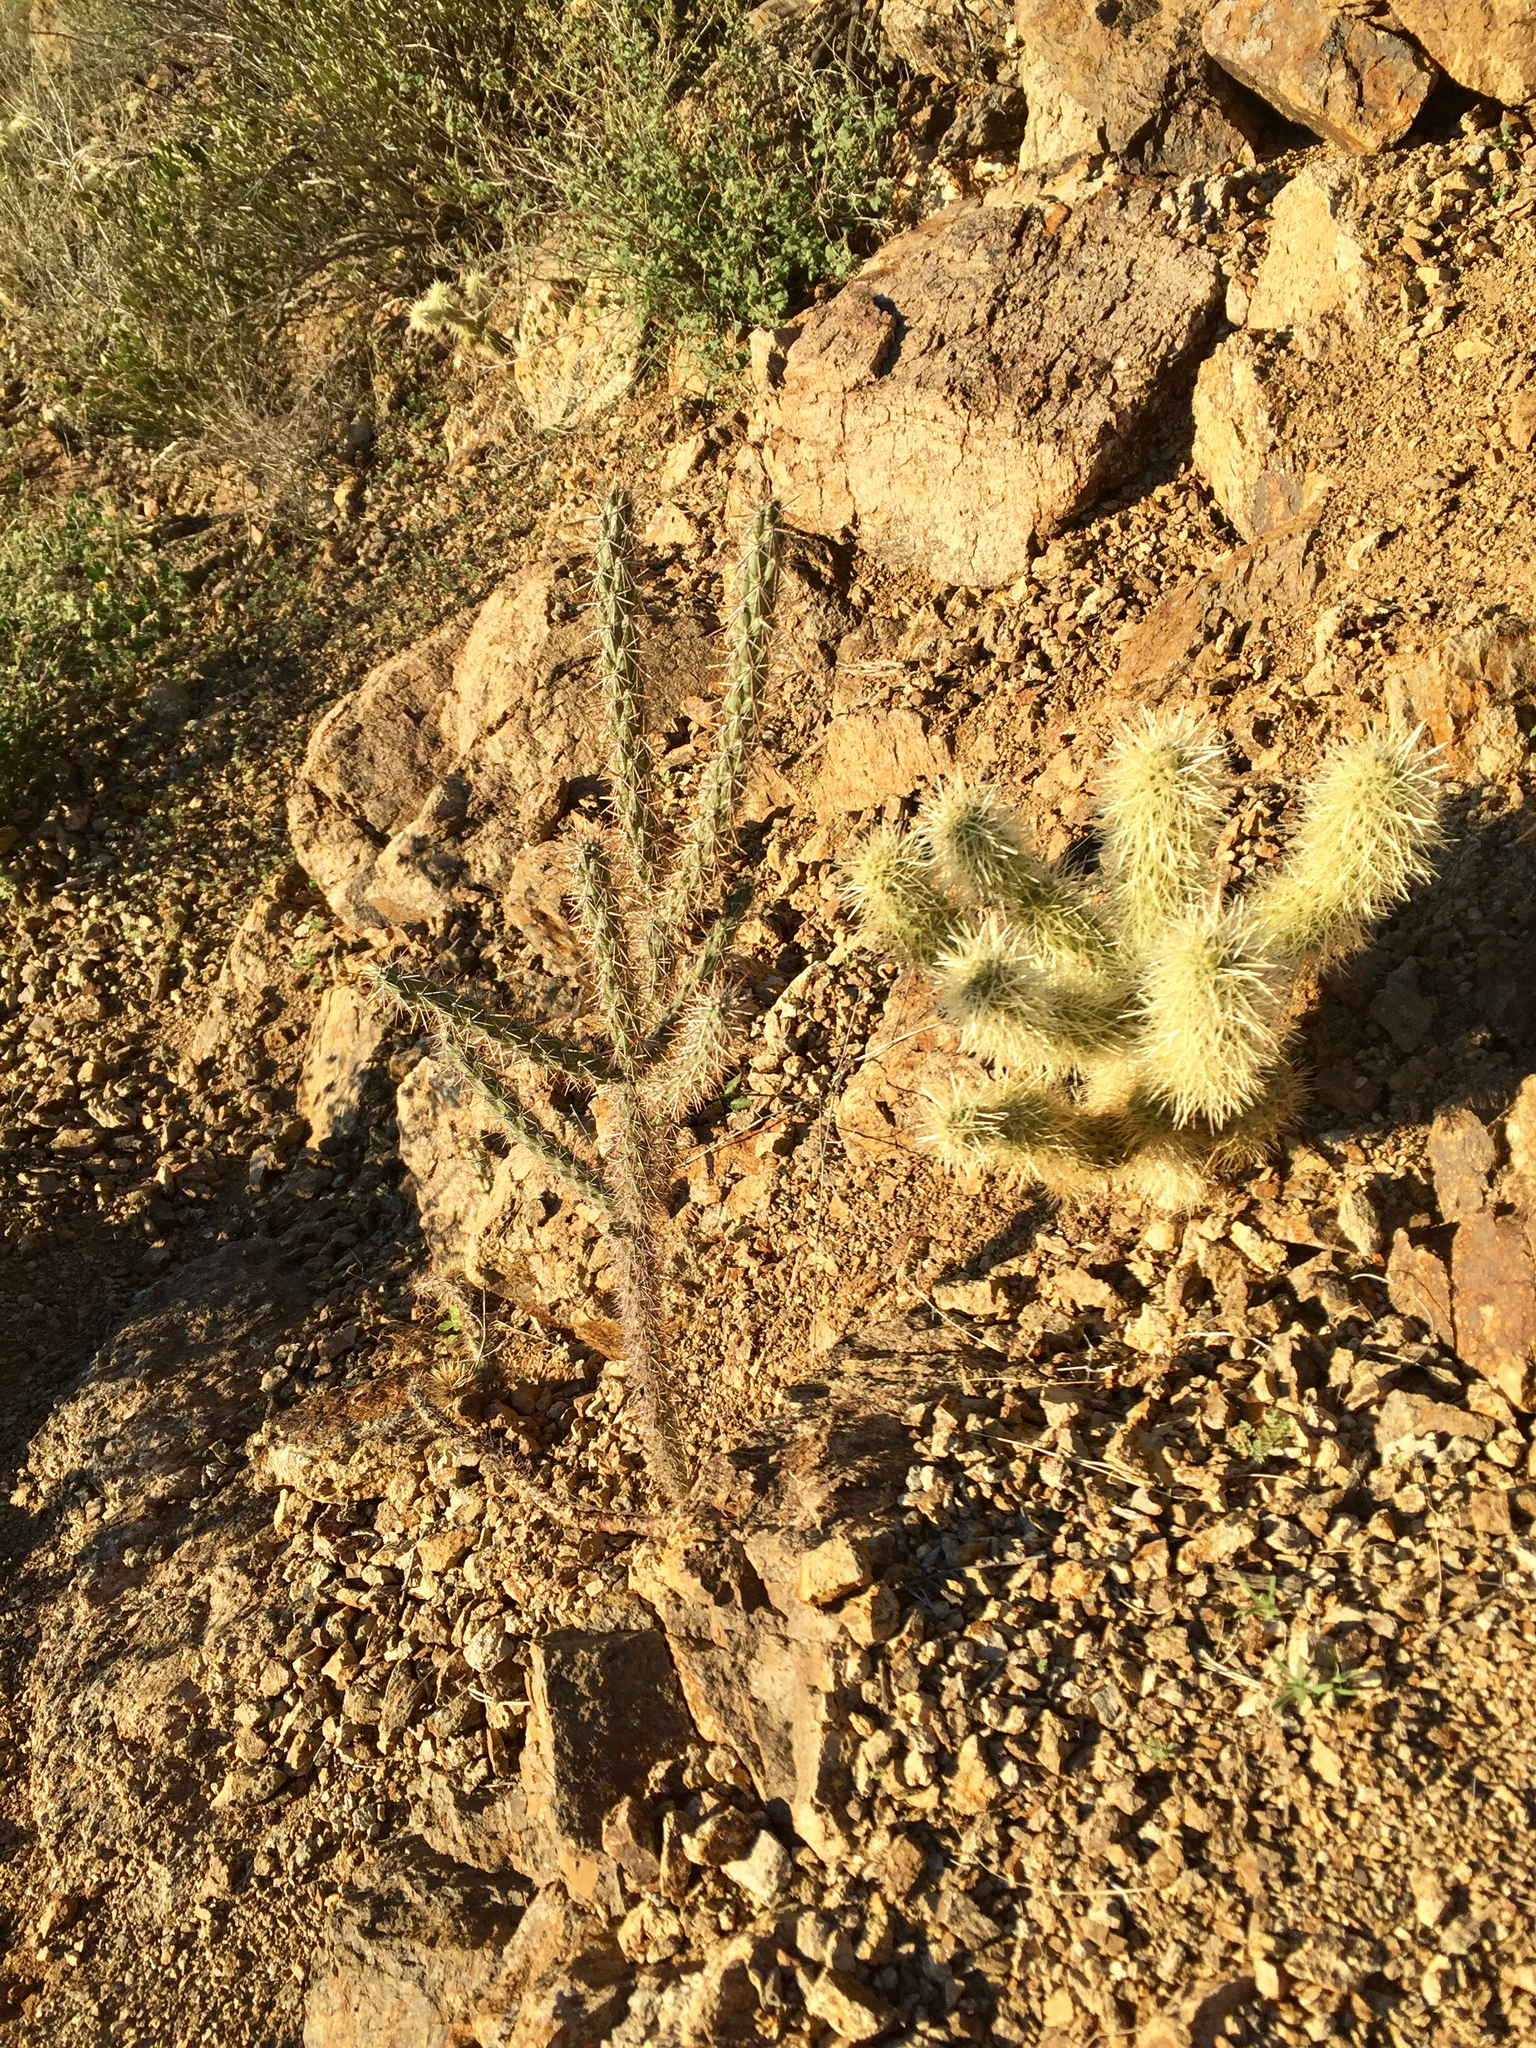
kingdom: Plantae
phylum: Tracheophyta
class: Magnoliopsida
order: Caryophyllales
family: Cactaceae
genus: Cylindropuntia
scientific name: Cylindropuntia acanthocarpa
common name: Buckhorn cholla
